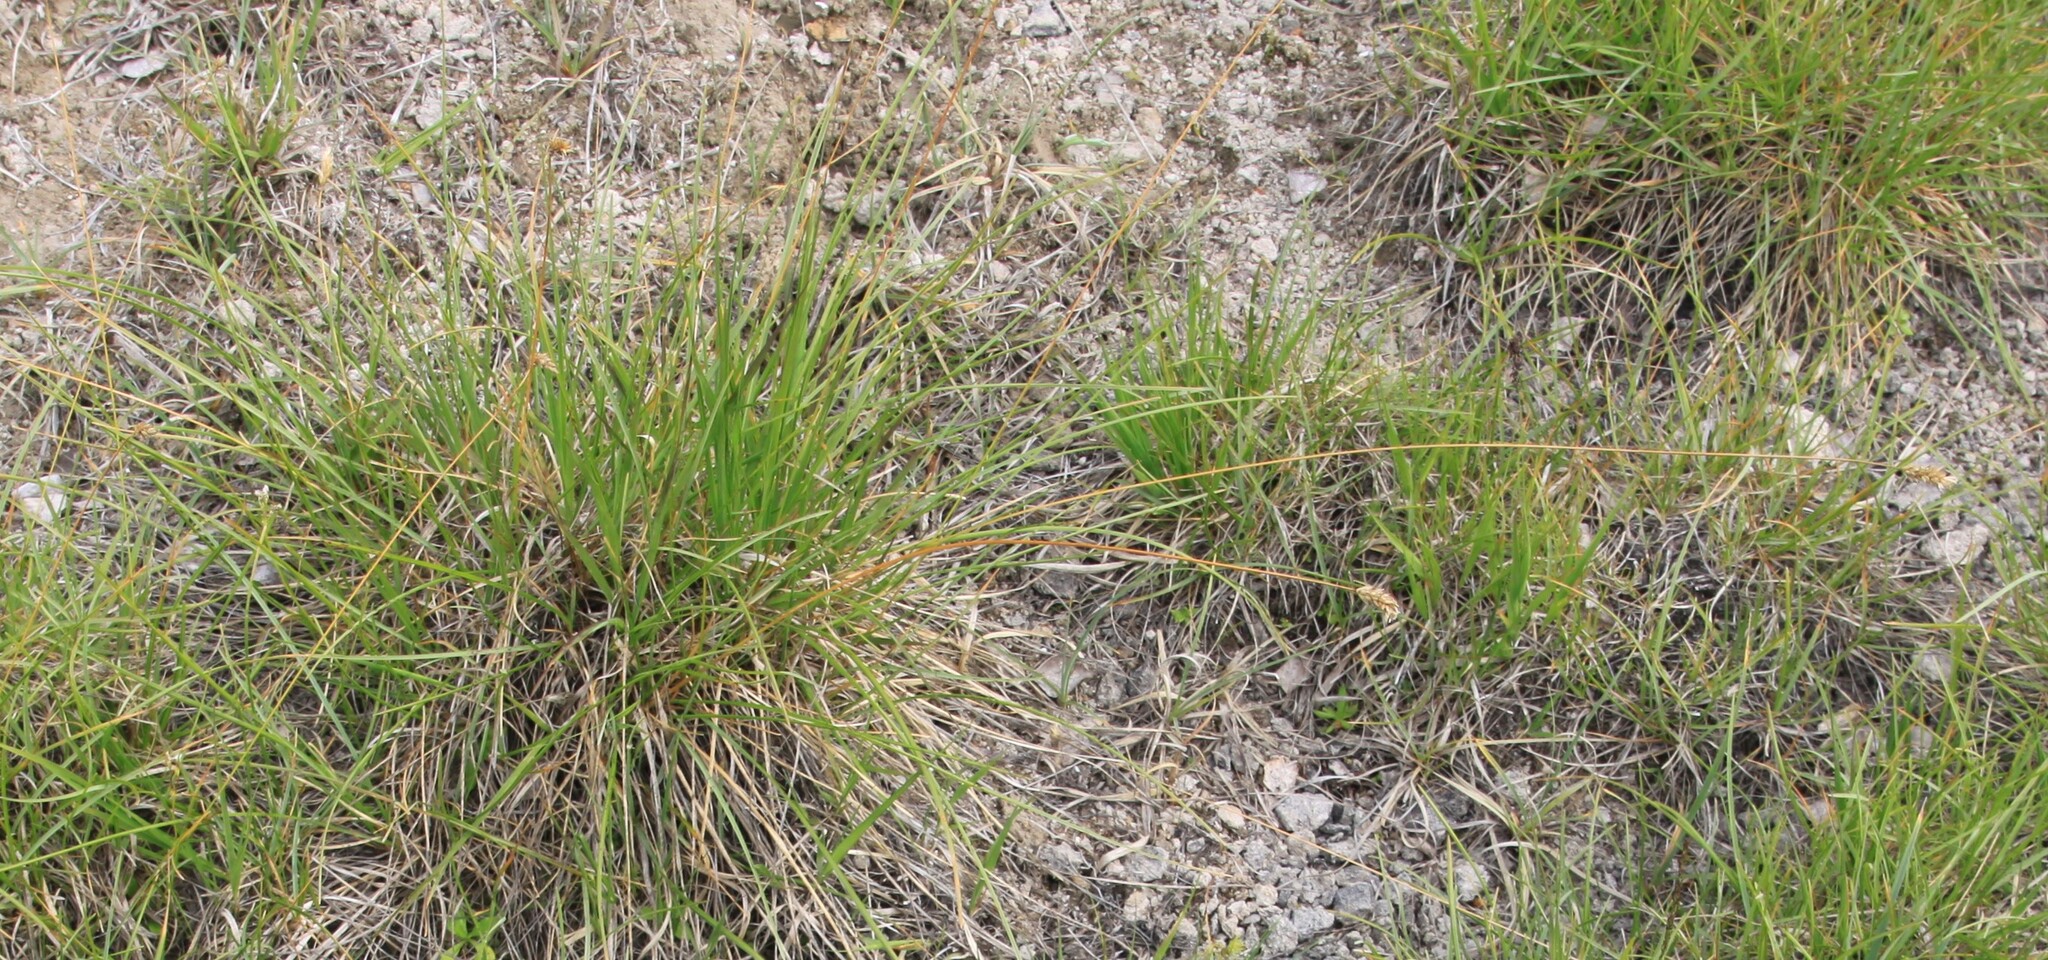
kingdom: Plantae
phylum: Tracheophyta
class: Liliopsida
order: Poales
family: Poaceae
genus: Sesleria
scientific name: Sesleria caerulea
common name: Blue moor-grass
